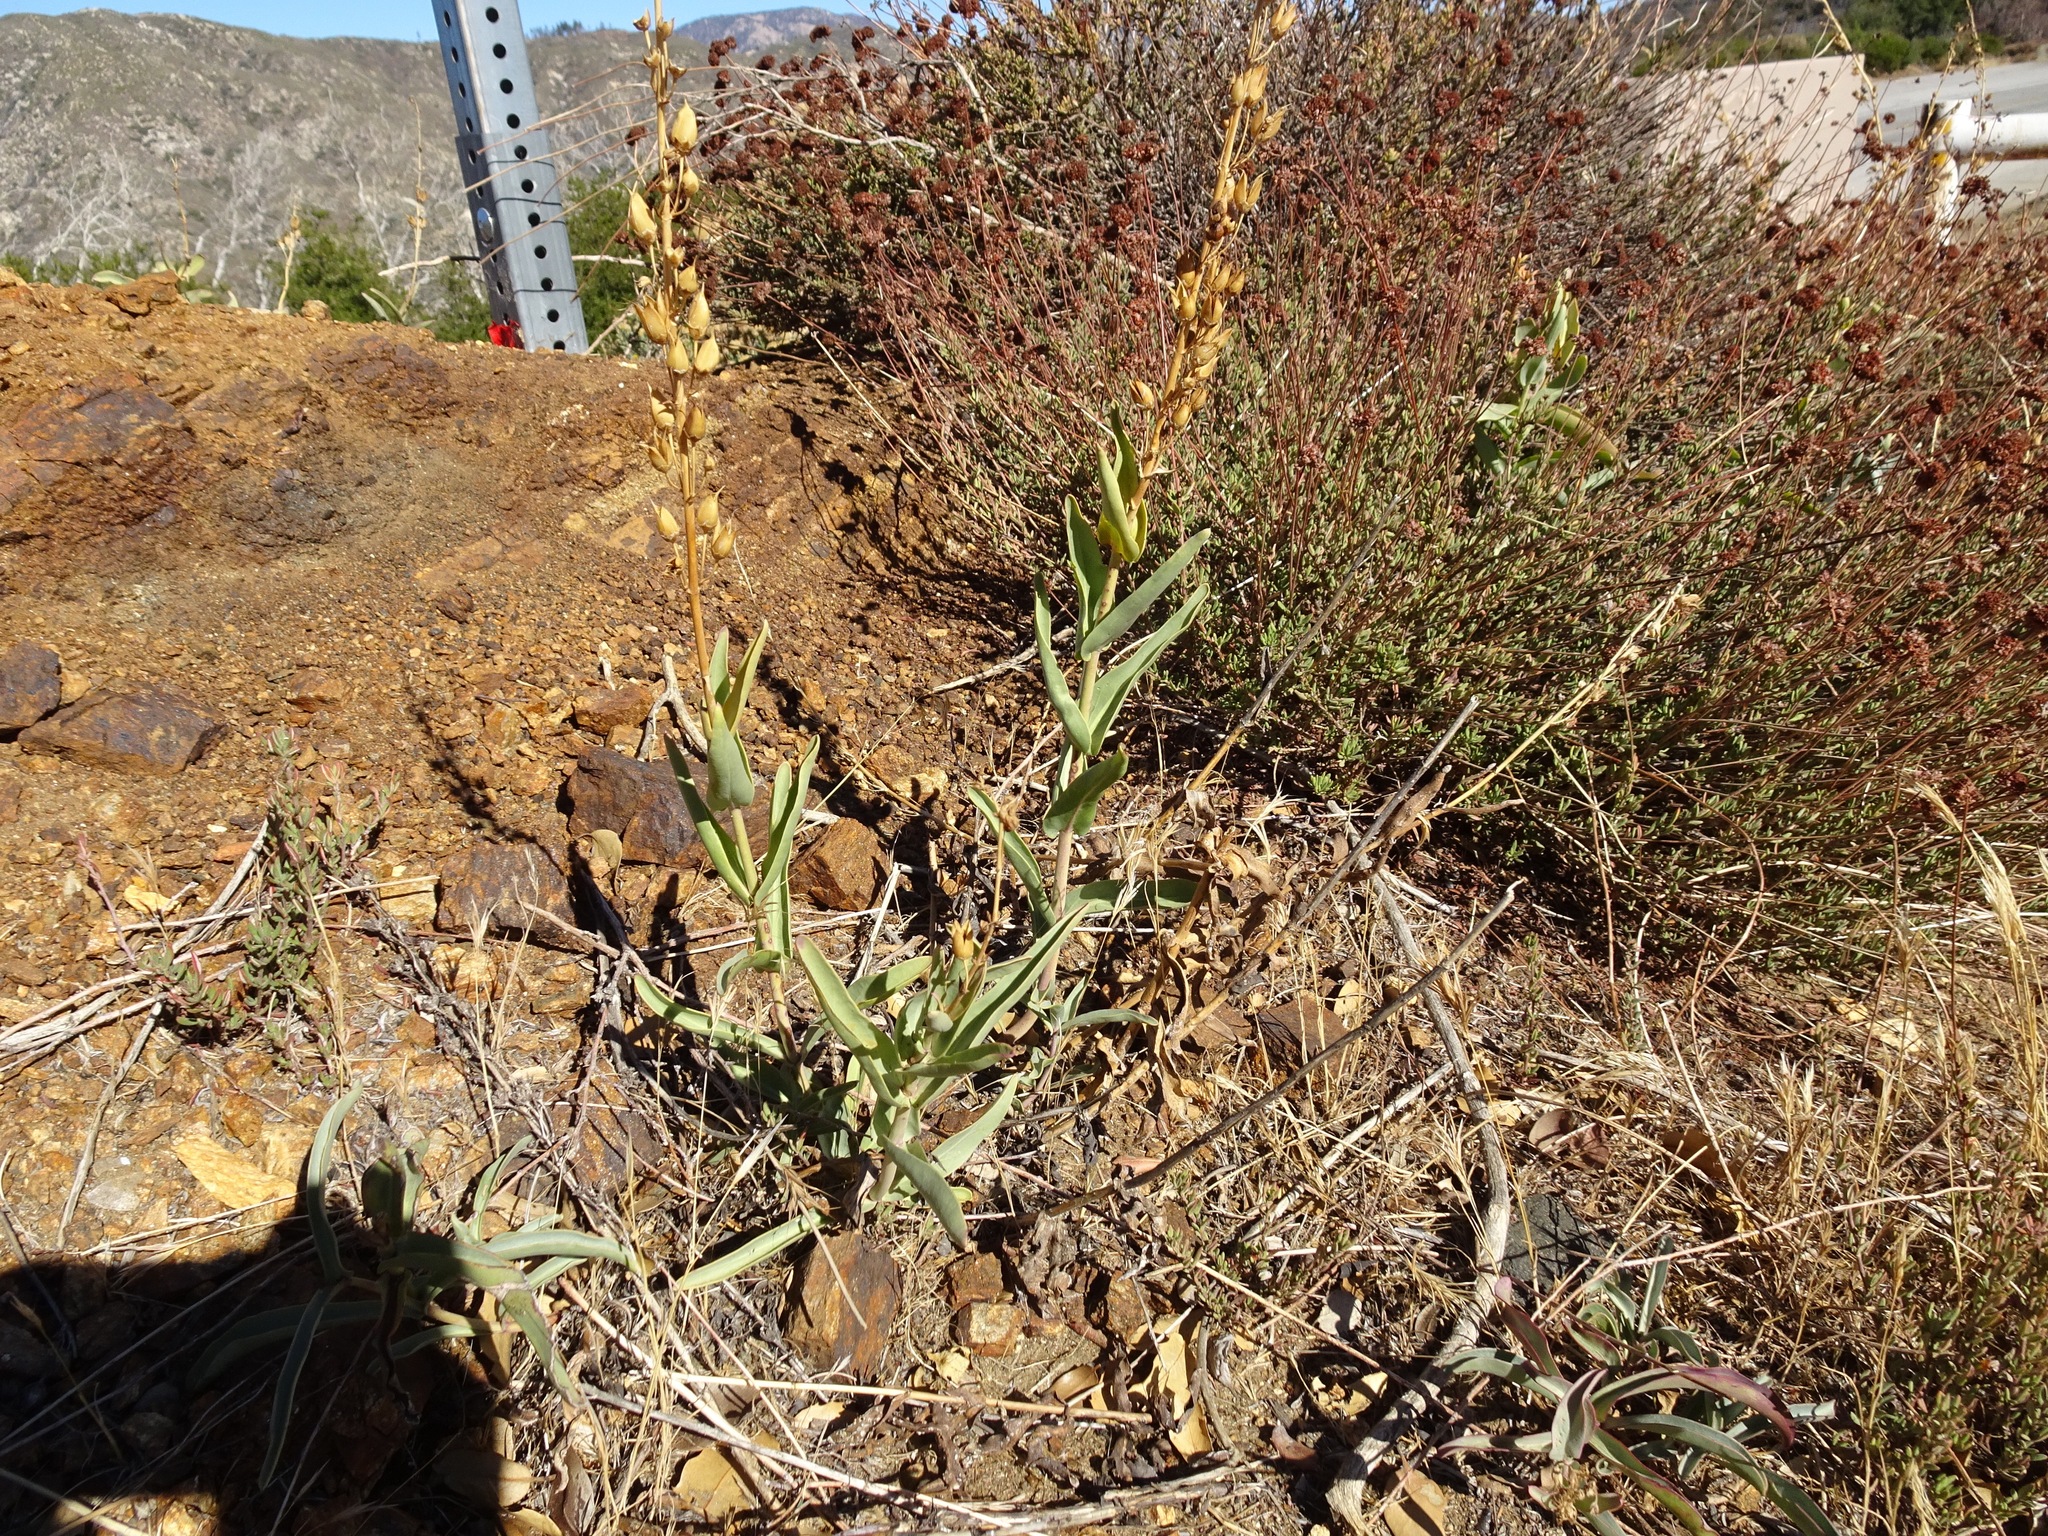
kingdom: Plantae
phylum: Tracheophyta
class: Magnoliopsida
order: Lamiales
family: Plantaginaceae
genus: Penstemon
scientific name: Penstemon centranthifolius
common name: Scarlet bugler
